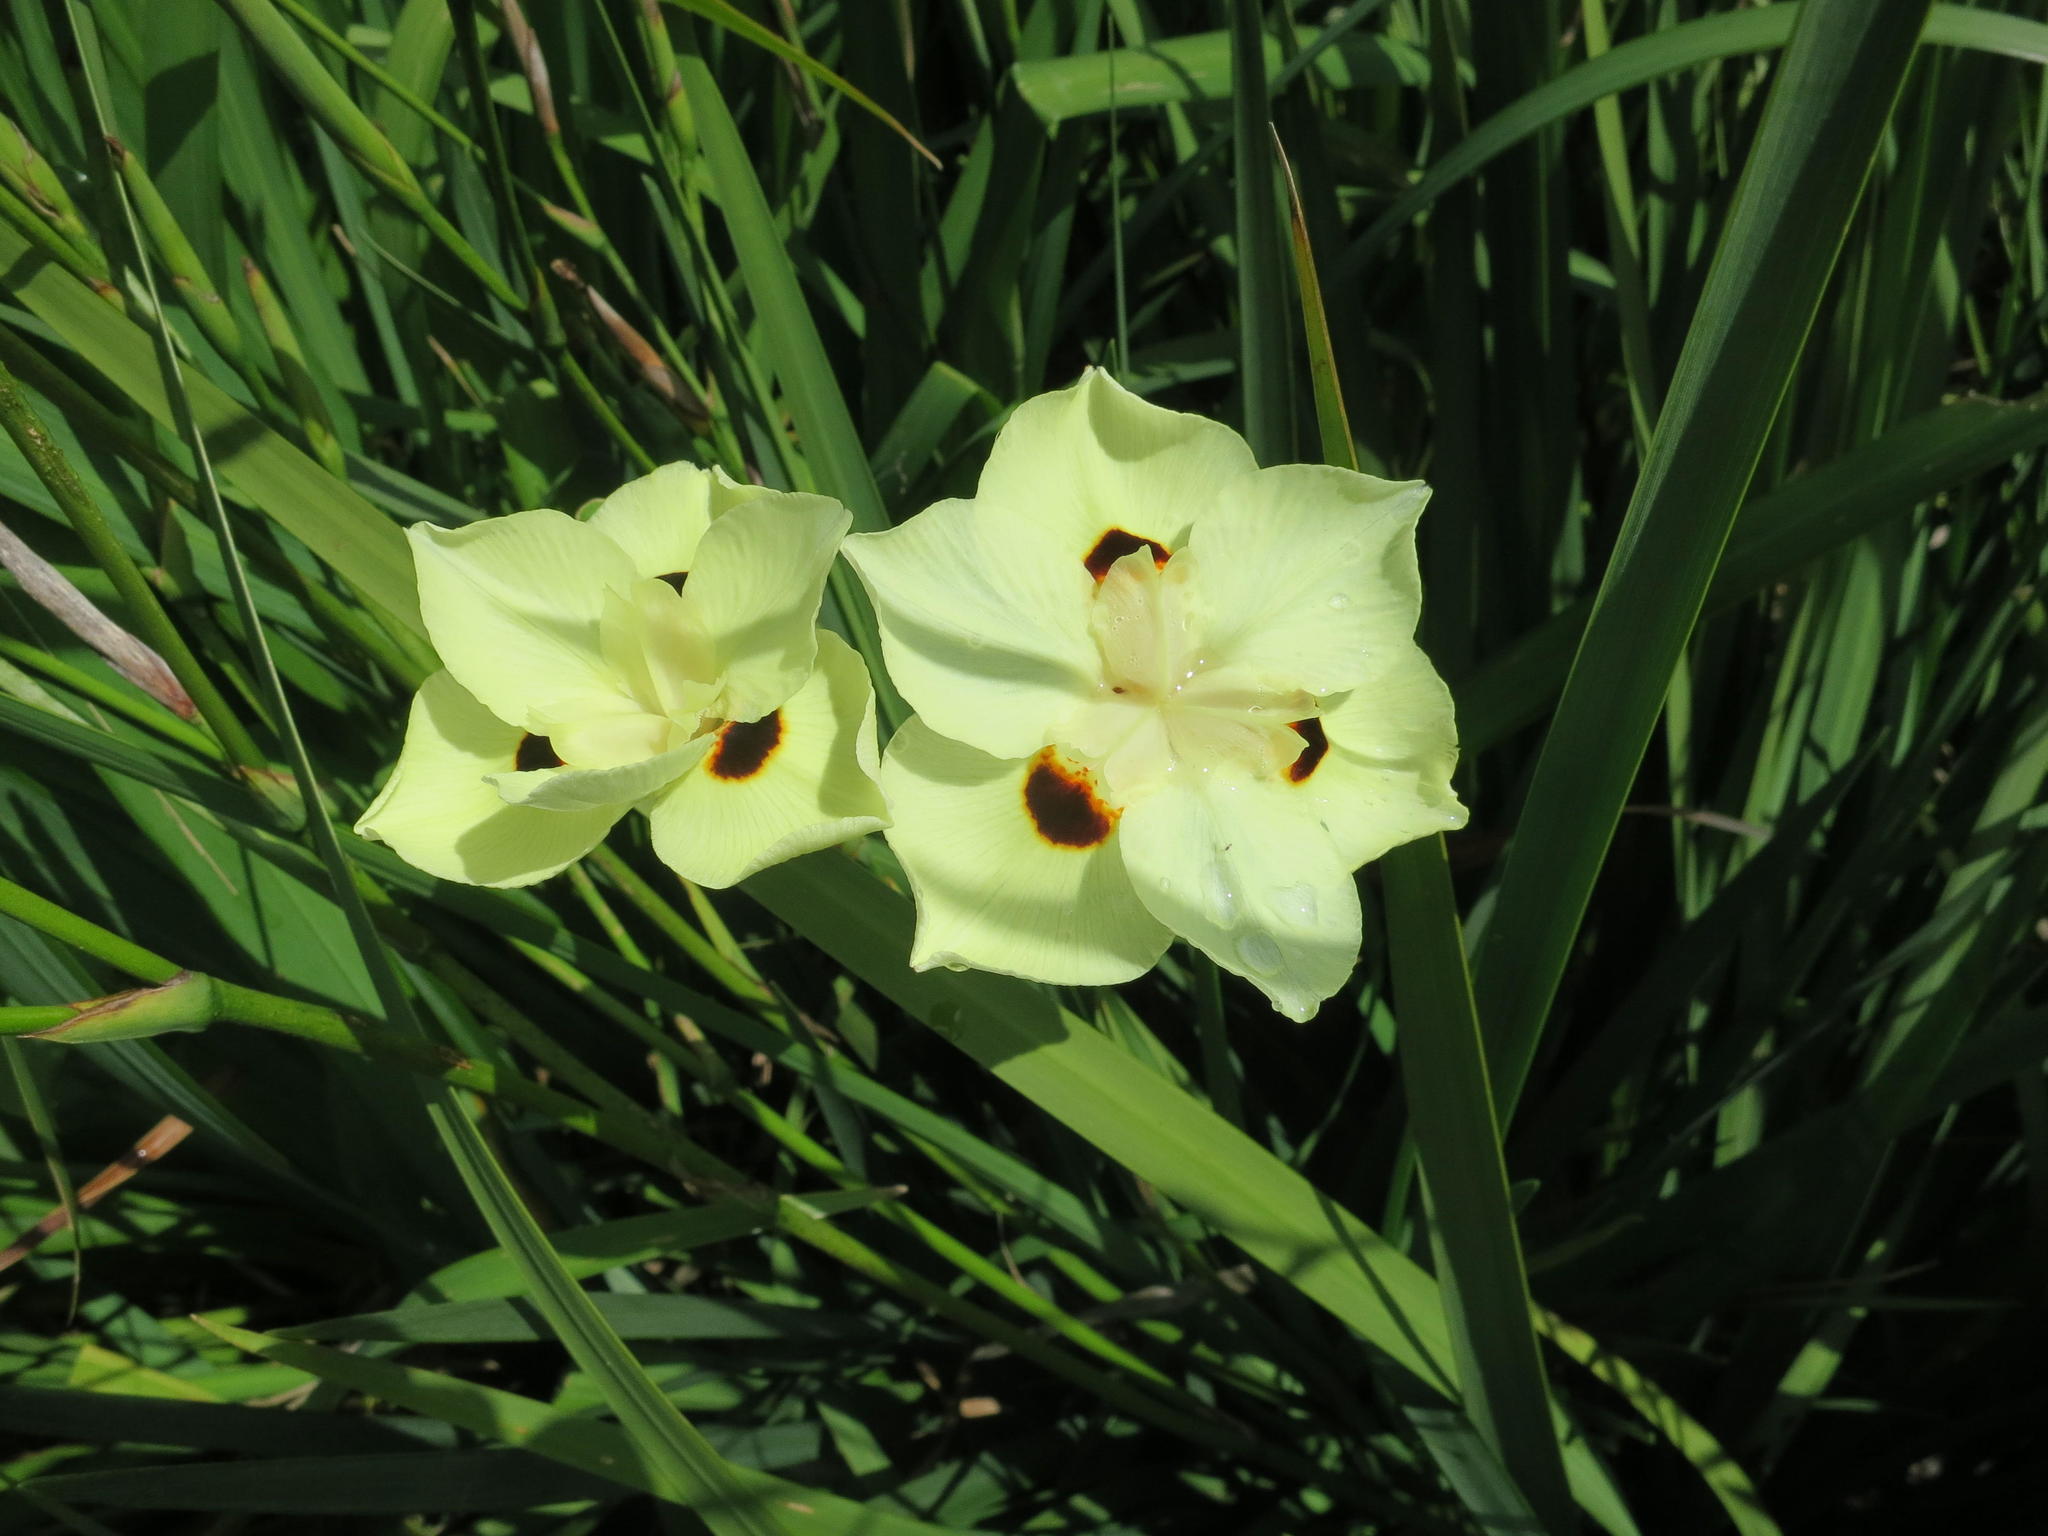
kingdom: Plantae
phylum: Tracheophyta
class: Liliopsida
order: Asparagales
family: Iridaceae
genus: Dietes
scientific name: Dietes bicolor
